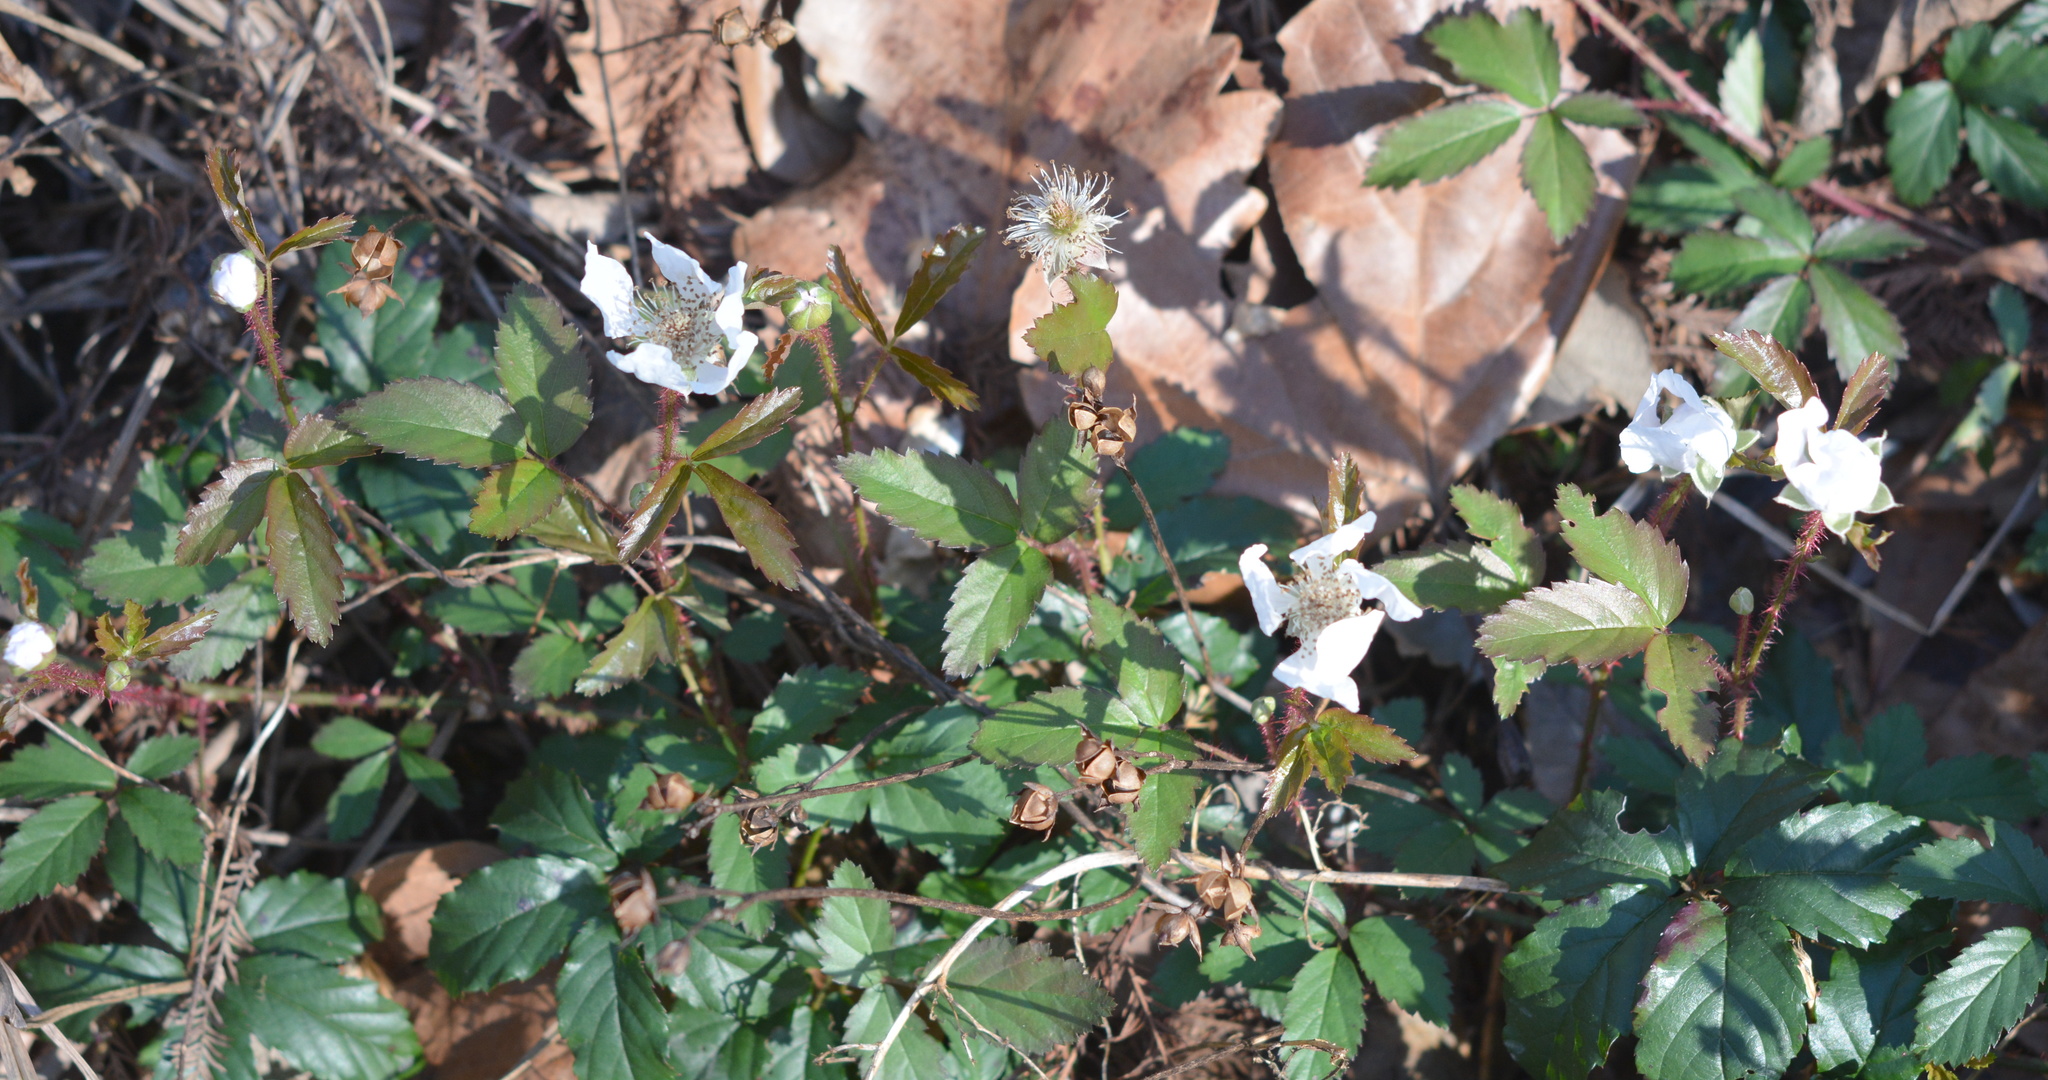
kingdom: Plantae
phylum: Tracheophyta
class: Magnoliopsida
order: Rosales
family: Rosaceae
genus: Rubus
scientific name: Rubus trivialis
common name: Southern dewberry
